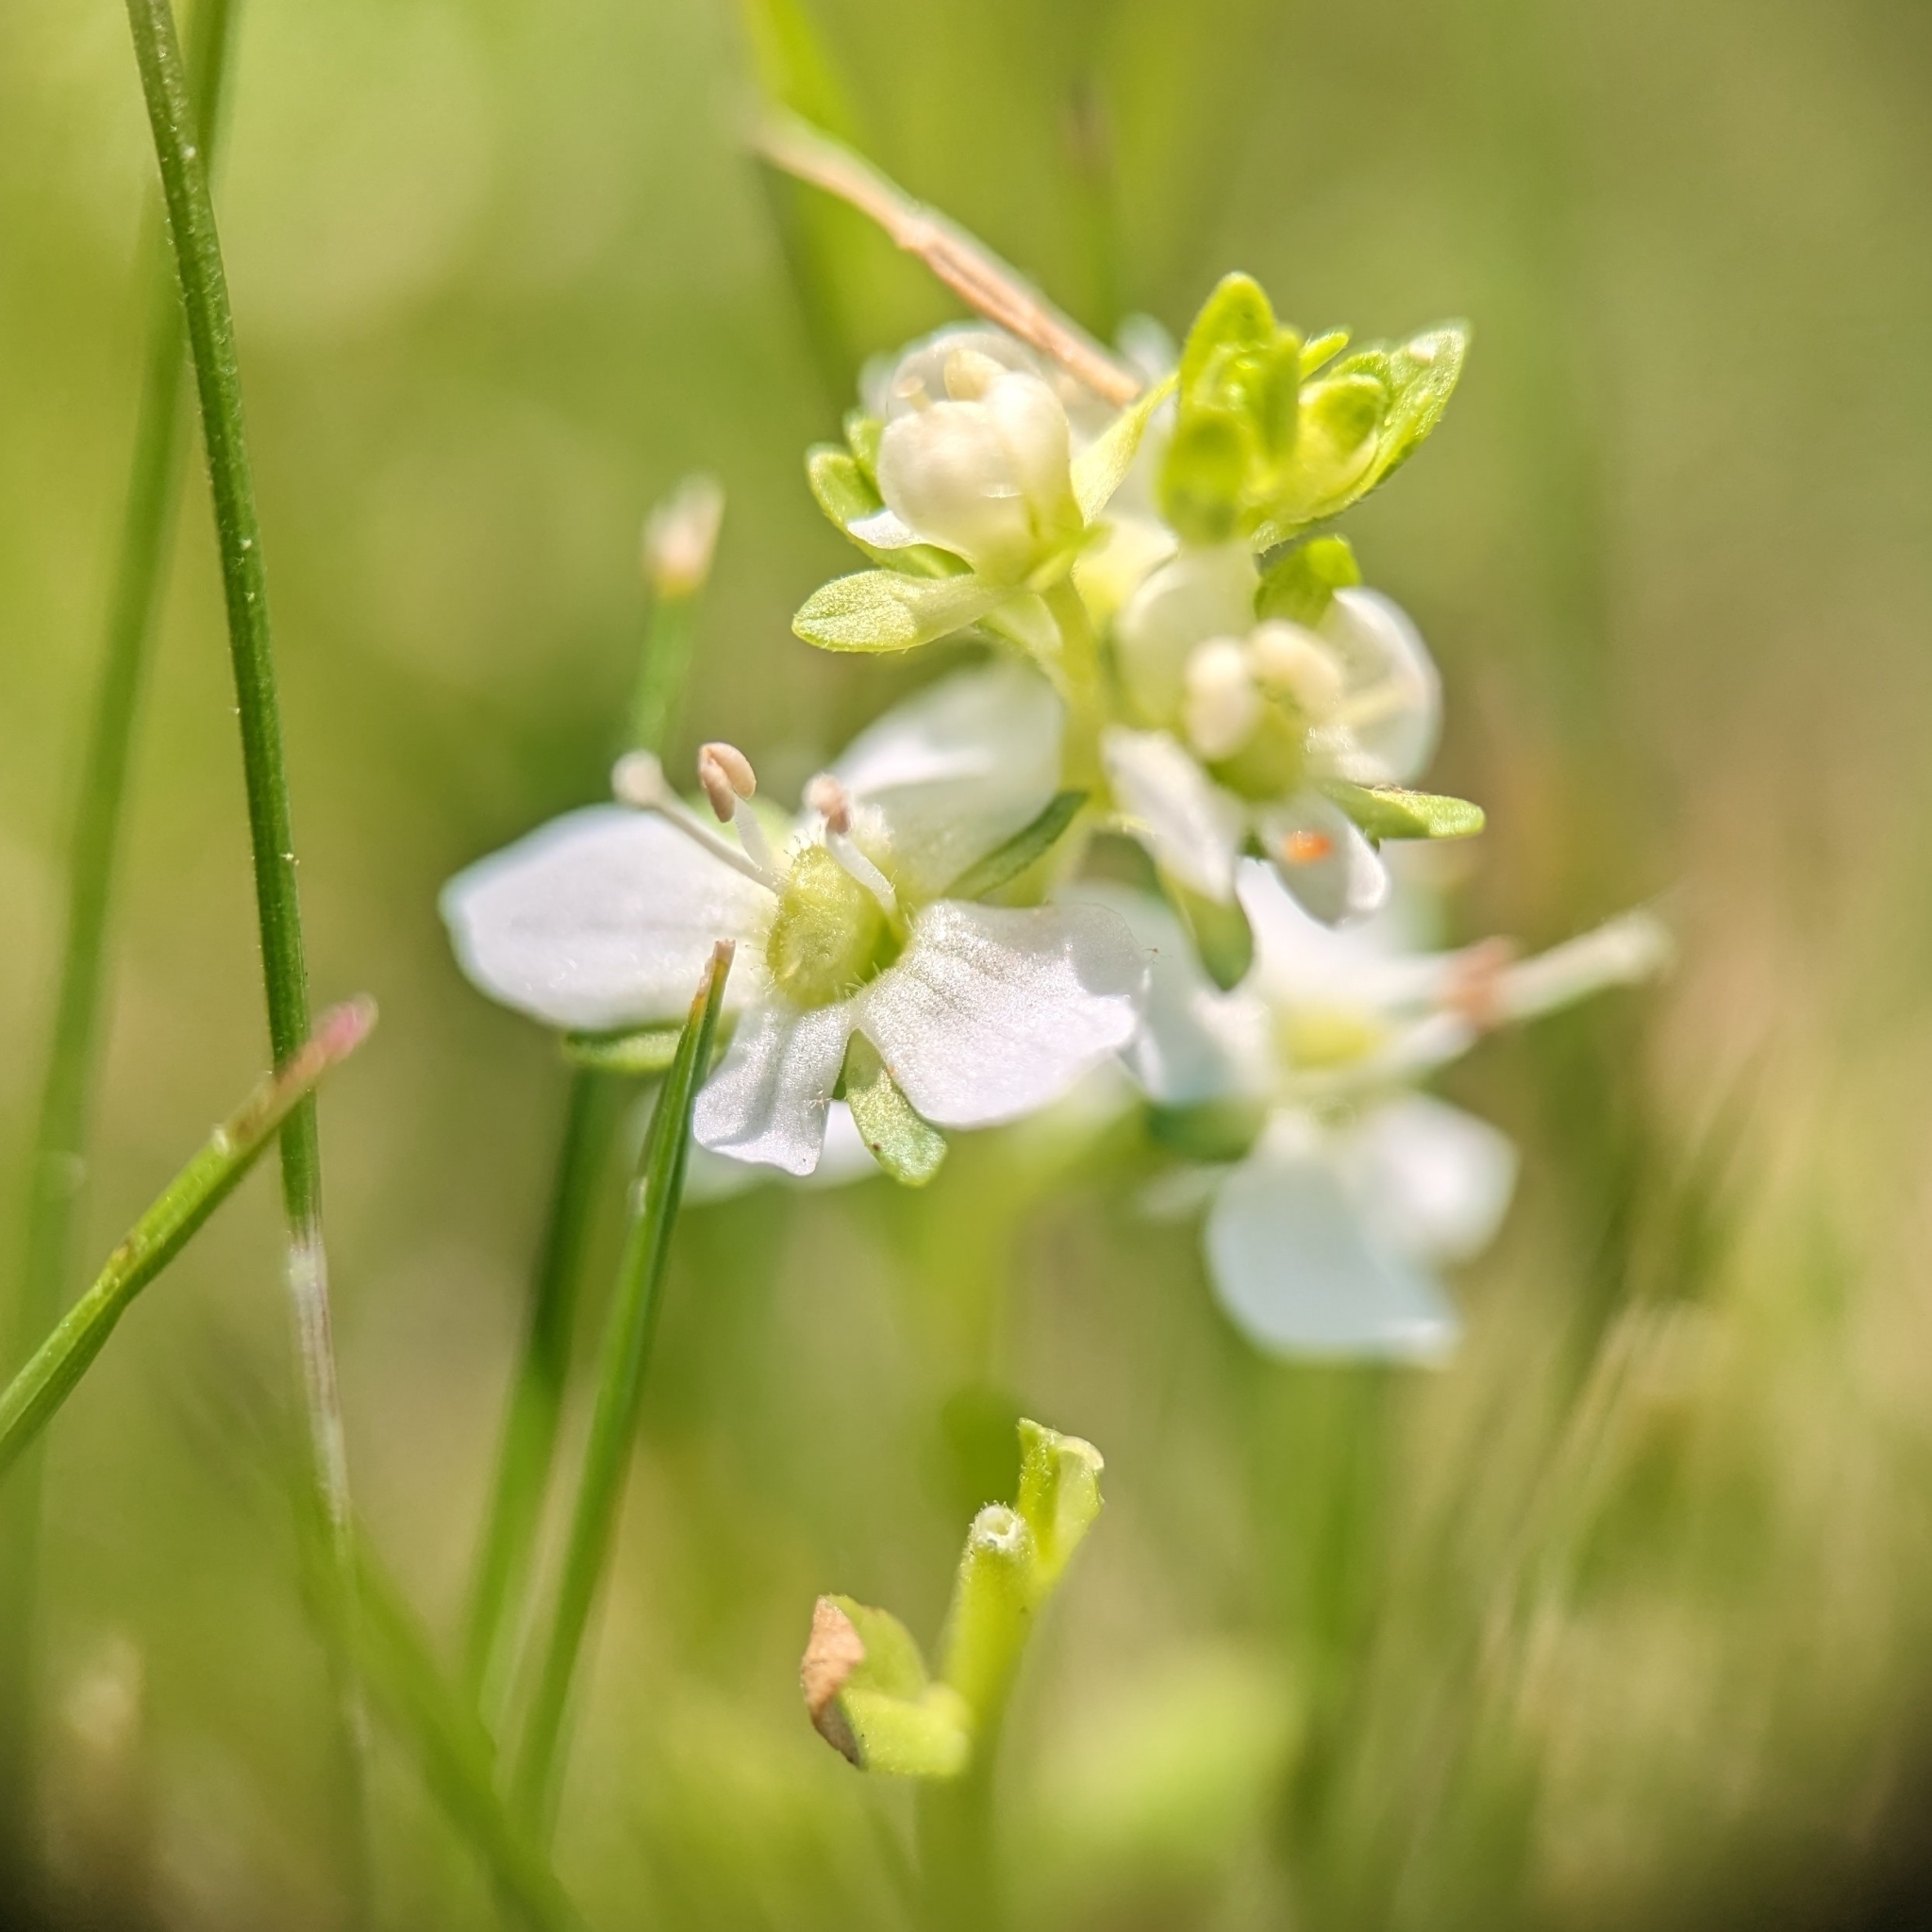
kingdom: Plantae
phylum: Tracheophyta
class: Magnoliopsida
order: Lamiales
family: Plantaginaceae
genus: Veronica
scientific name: Veronica serpyllifolia
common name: Thyme-leaved speedwell
